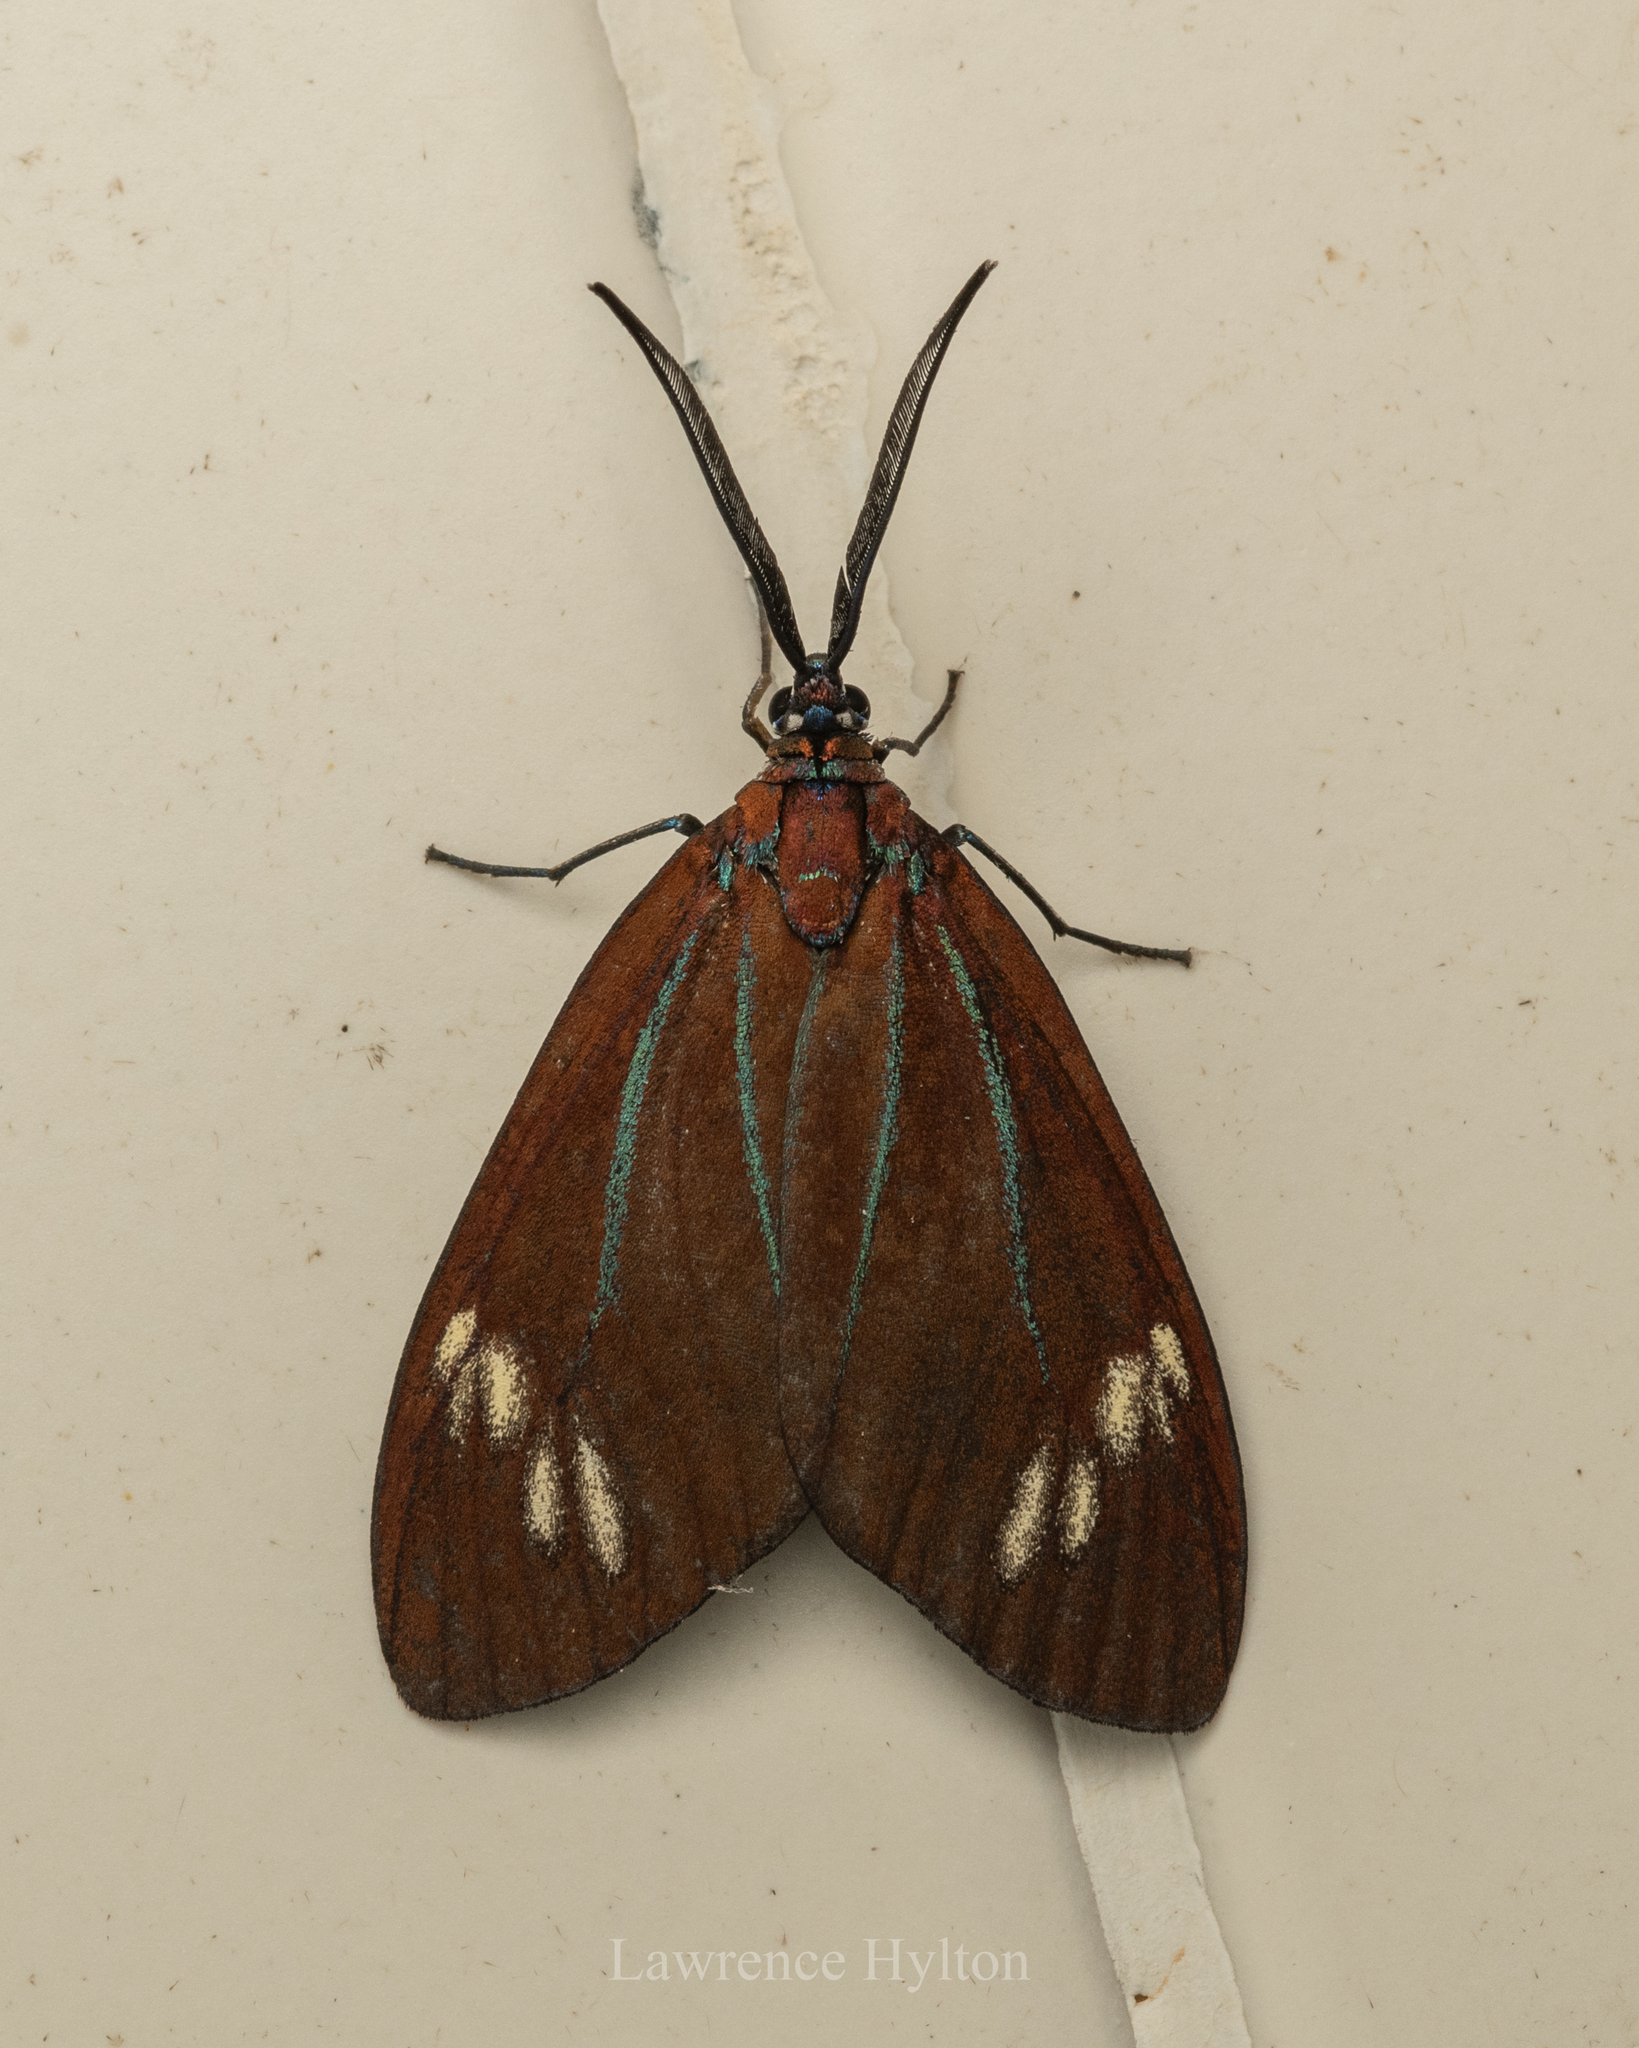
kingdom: Animalia
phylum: Arthropoda
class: Insecta
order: Lepidoptera
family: Zygaenidae
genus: Cyclosia
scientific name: Cyclosia papilionaris
